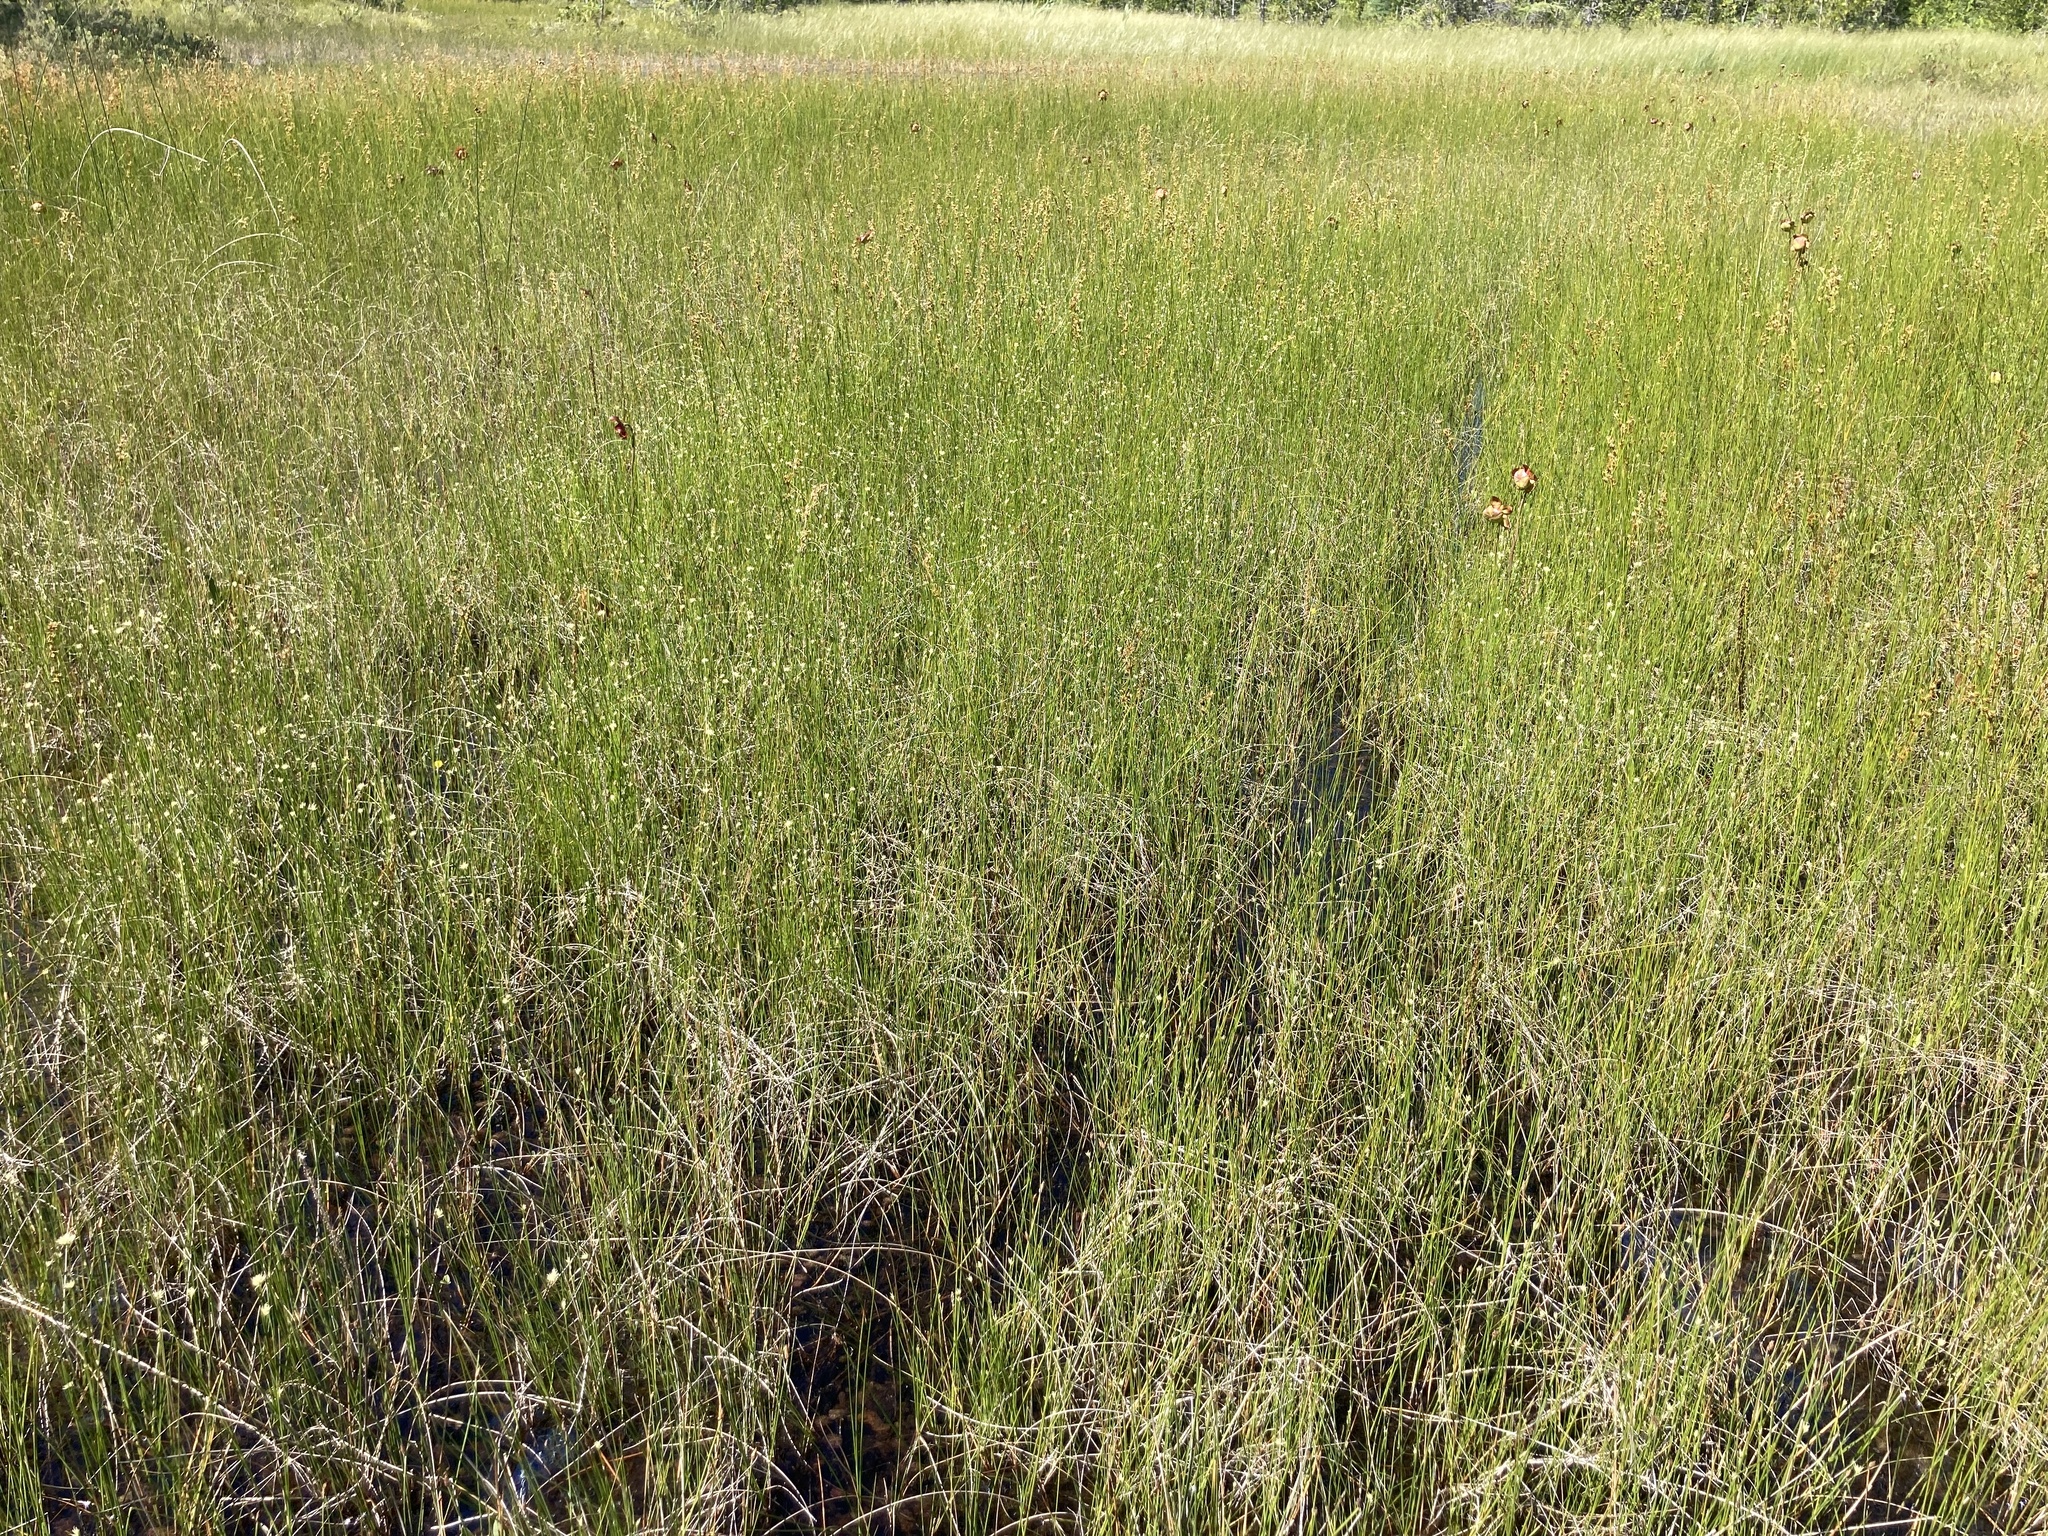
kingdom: Plantae
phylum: Tracheophyta
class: Liliopsida
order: Poales
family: Cyperaceae
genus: Rhynchospora
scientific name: Rhynchospora alba
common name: White beak-sedge
